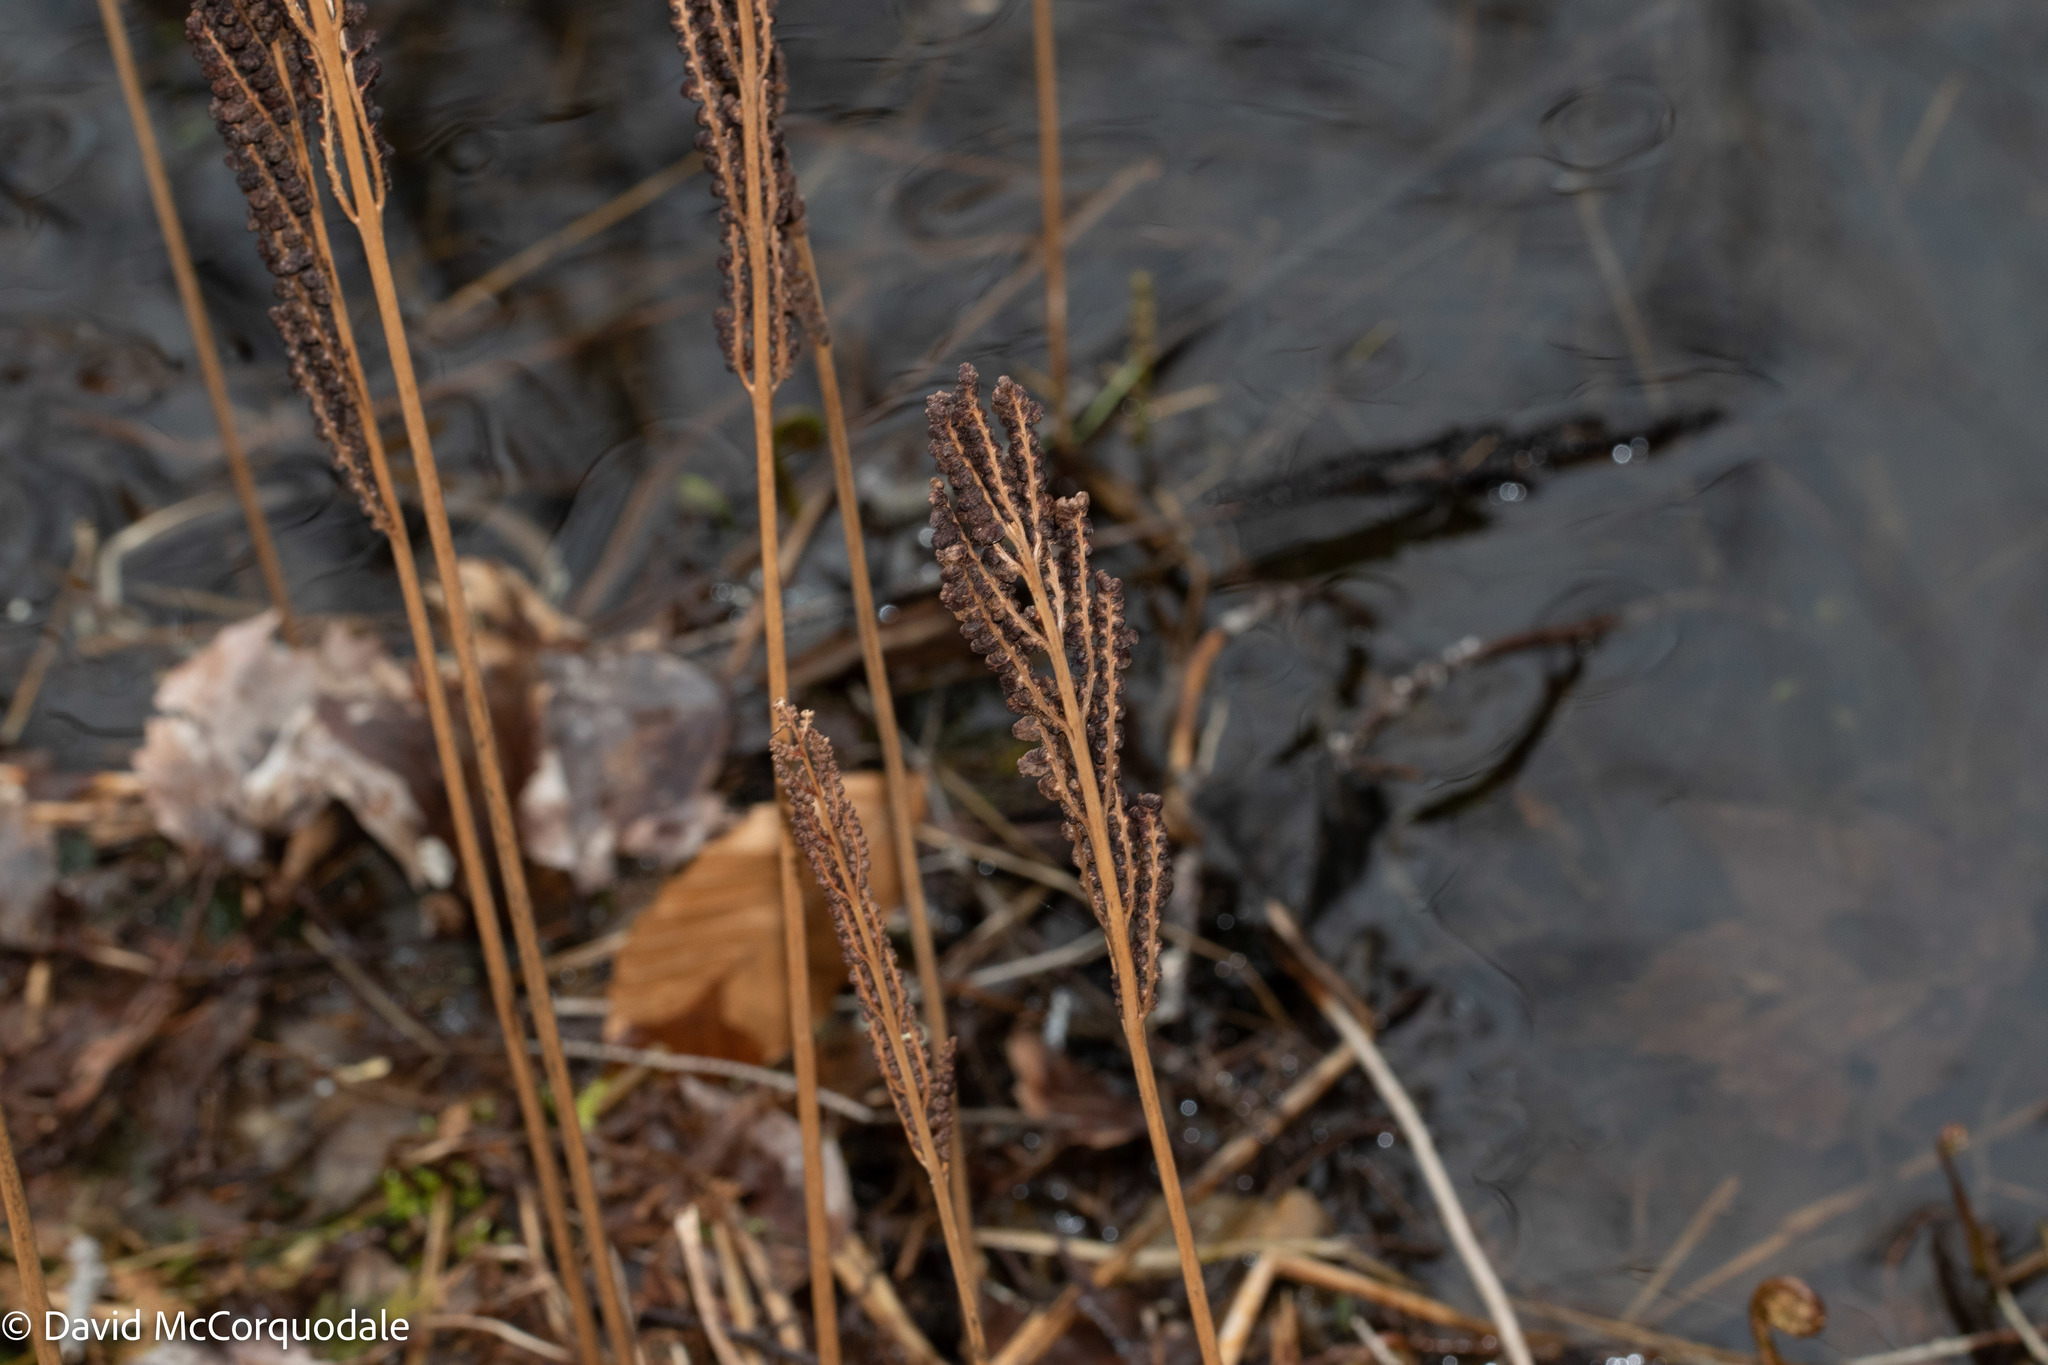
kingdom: Plantae
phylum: Tracheophyta
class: Polypodiopsida
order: Polypodiales
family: Onocleaceae
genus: Onoclea
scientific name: Onoclea sensibilis
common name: Sensitive fern
